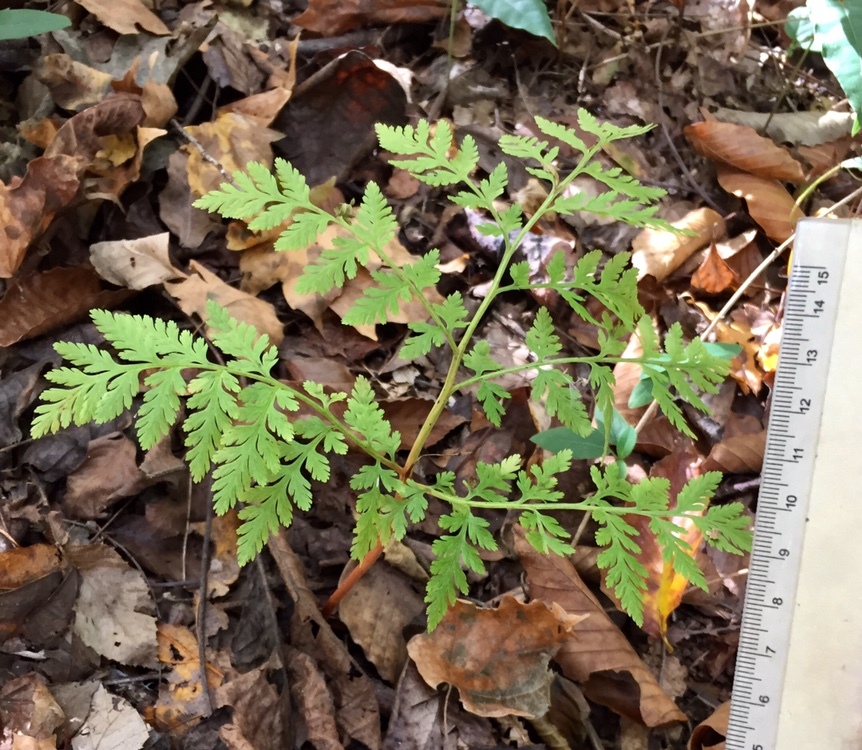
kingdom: Plantae
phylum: Tracheophyta
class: Polypodiopsida
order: Ophioglossales
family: Ophioglossaceae
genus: Botrypus
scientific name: Botrypus virginianus
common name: Common grapefern
